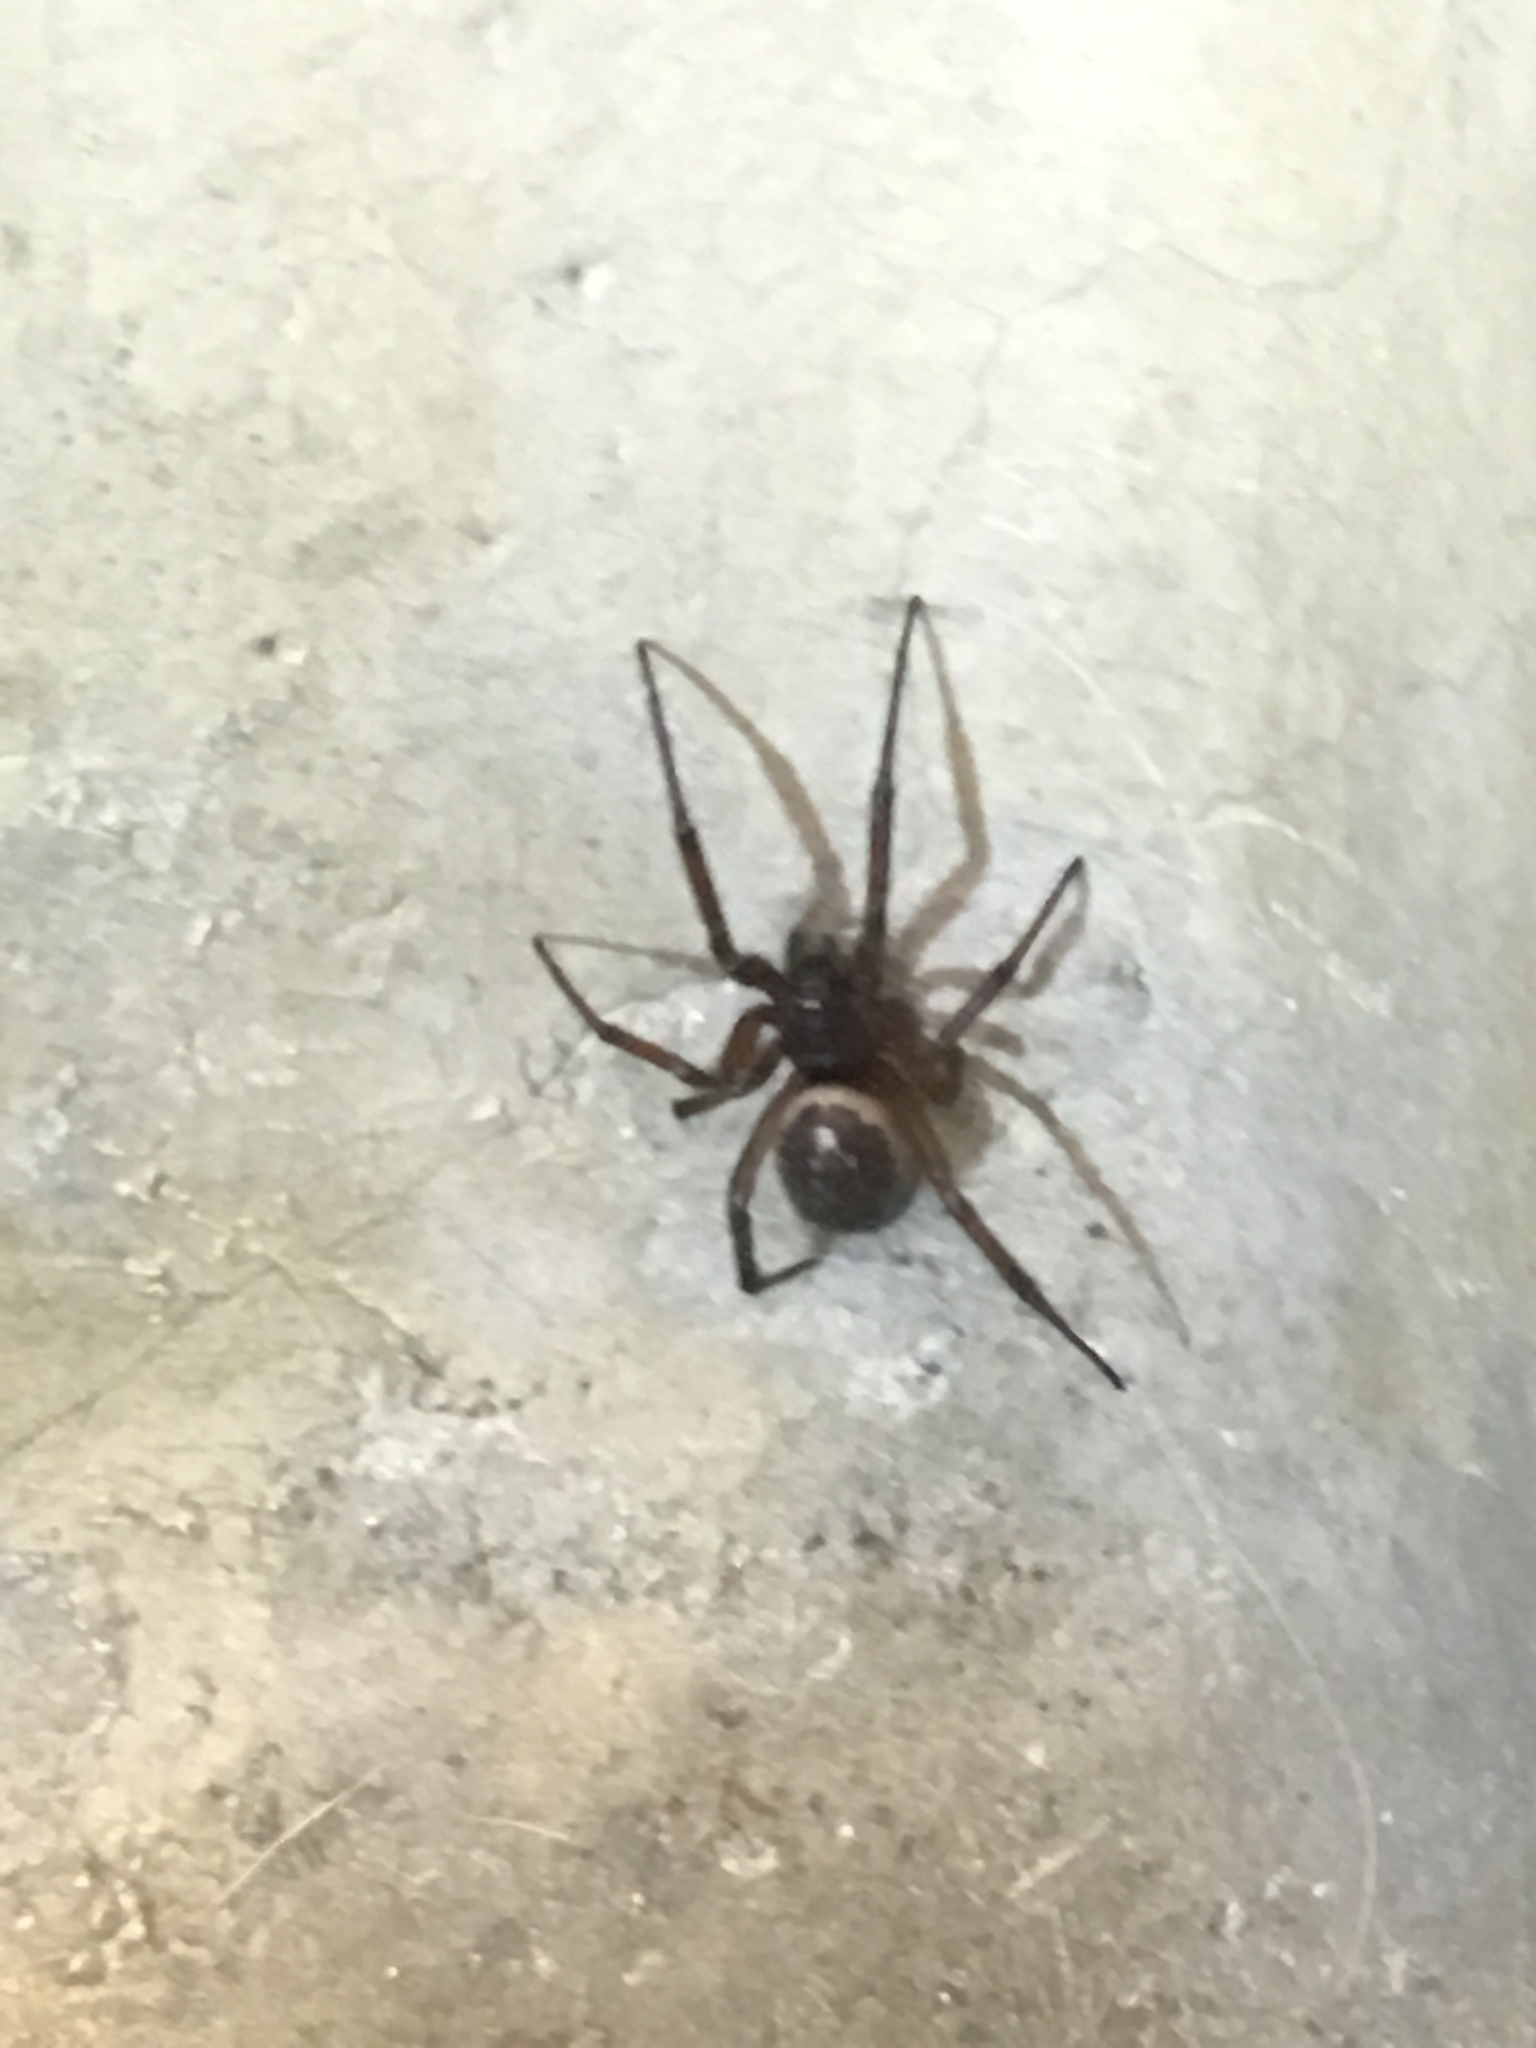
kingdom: Animalia
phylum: Arthropoda
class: Arachnida
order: Araneae
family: Theridiidae
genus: Steatoda
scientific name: Steatoda nobilis
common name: Cobweb weaver
